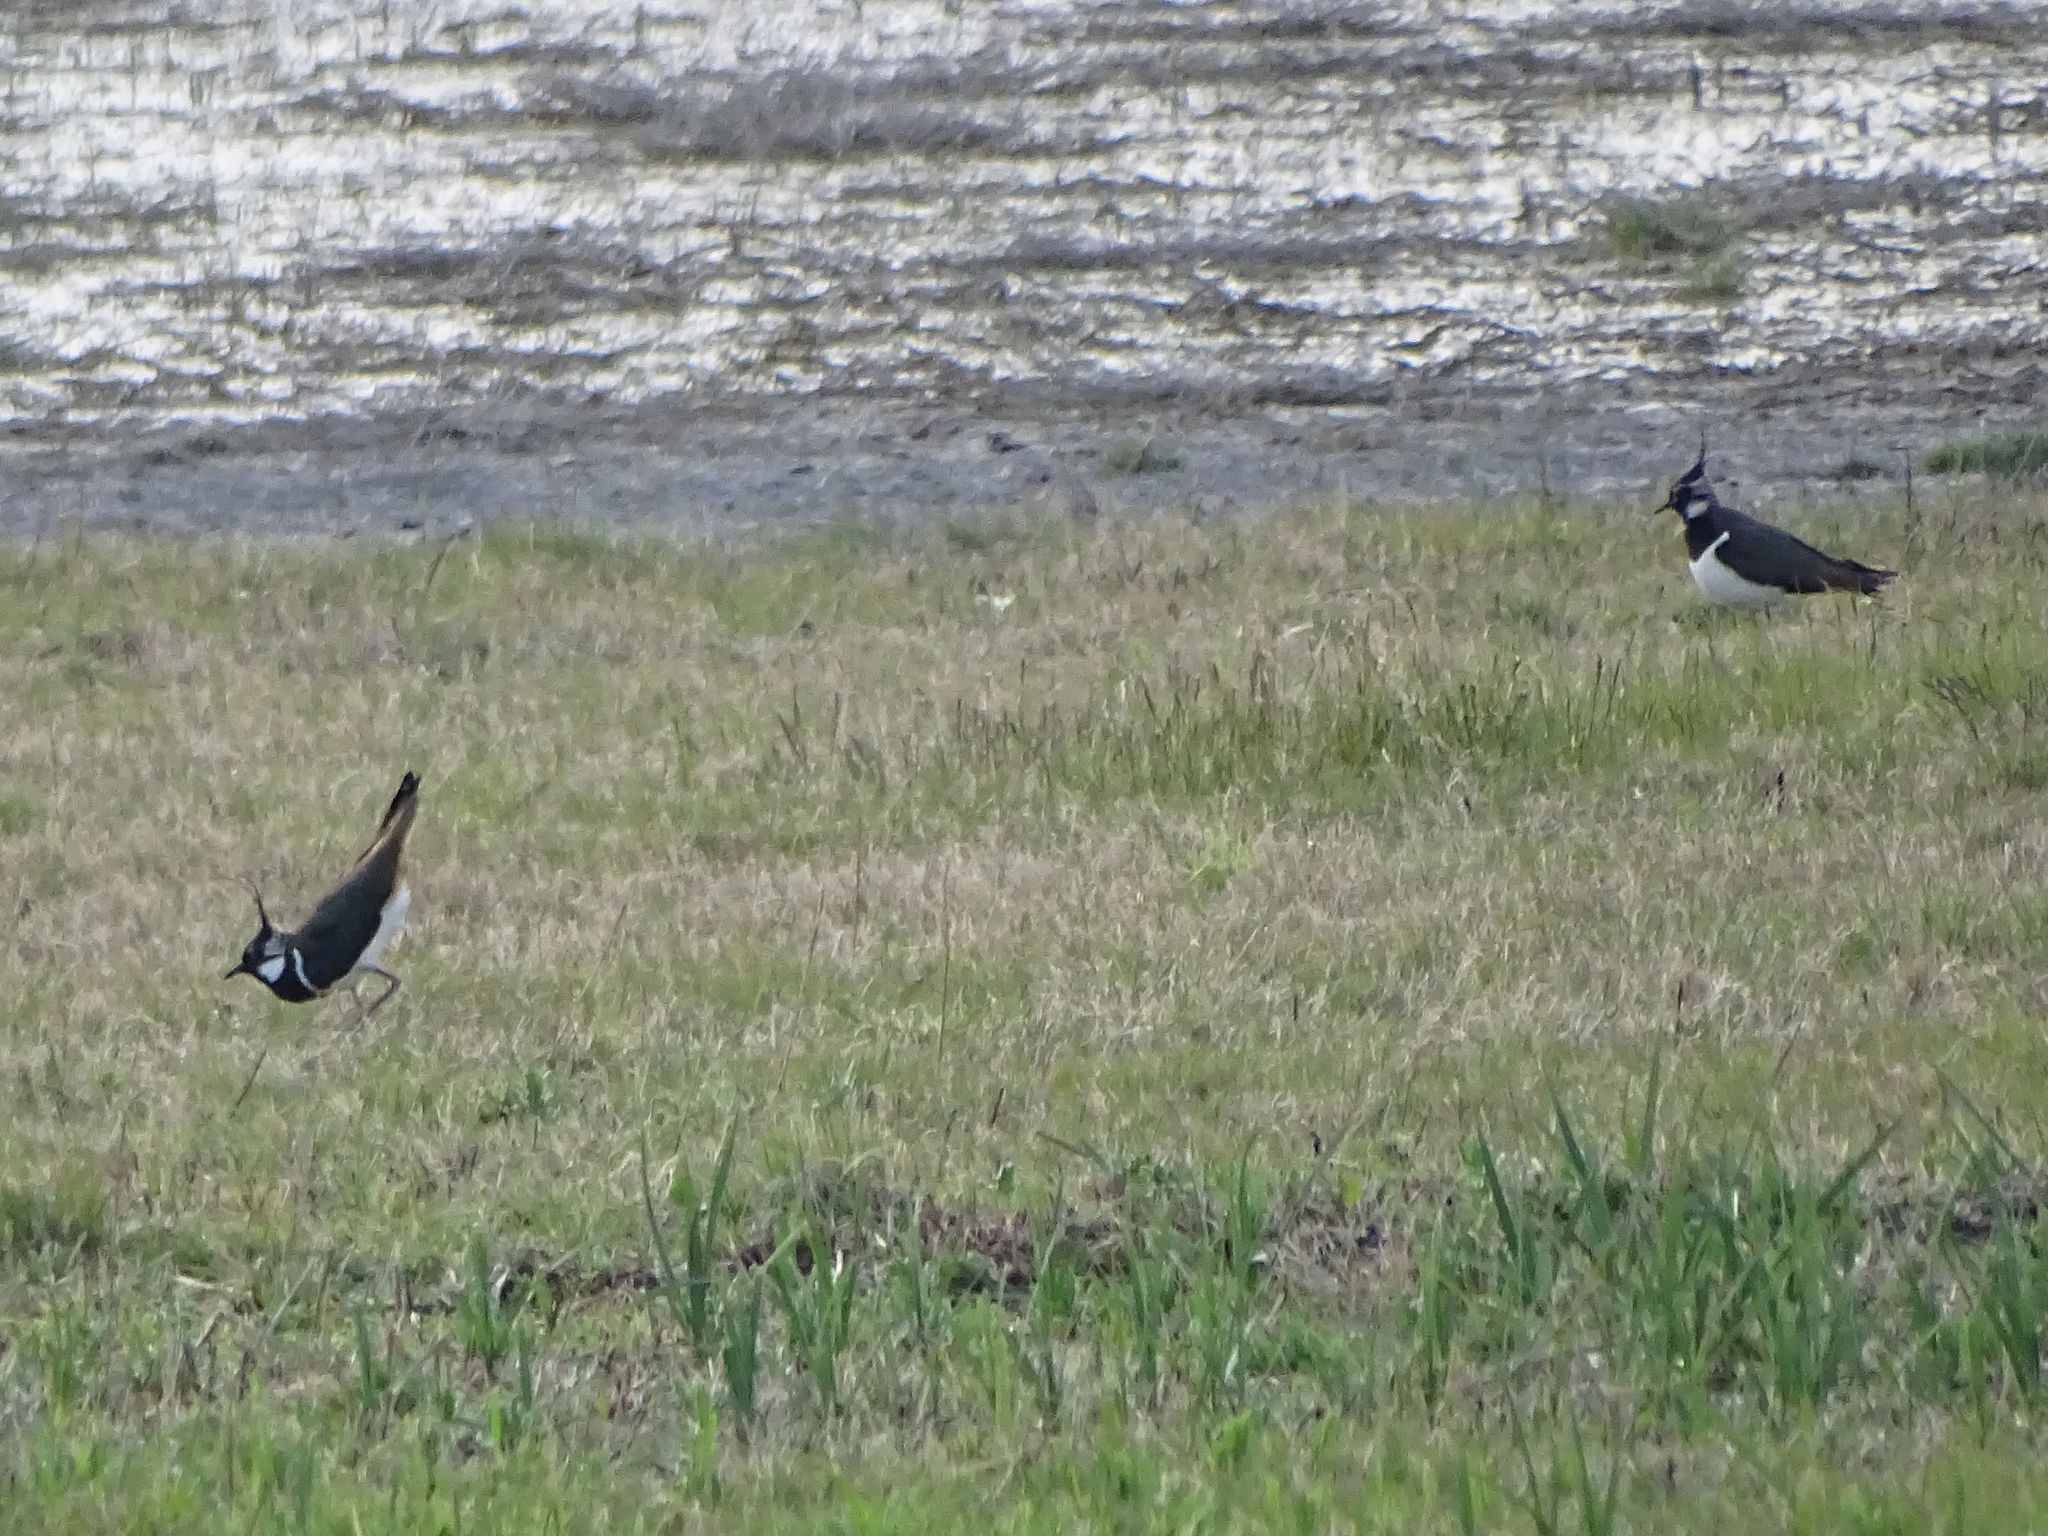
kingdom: Animalia
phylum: Chordata
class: Aves
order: Charadriiformes
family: Charadriidae
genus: Vanellus
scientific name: Vanellus vanellus
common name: Northern lapwing
